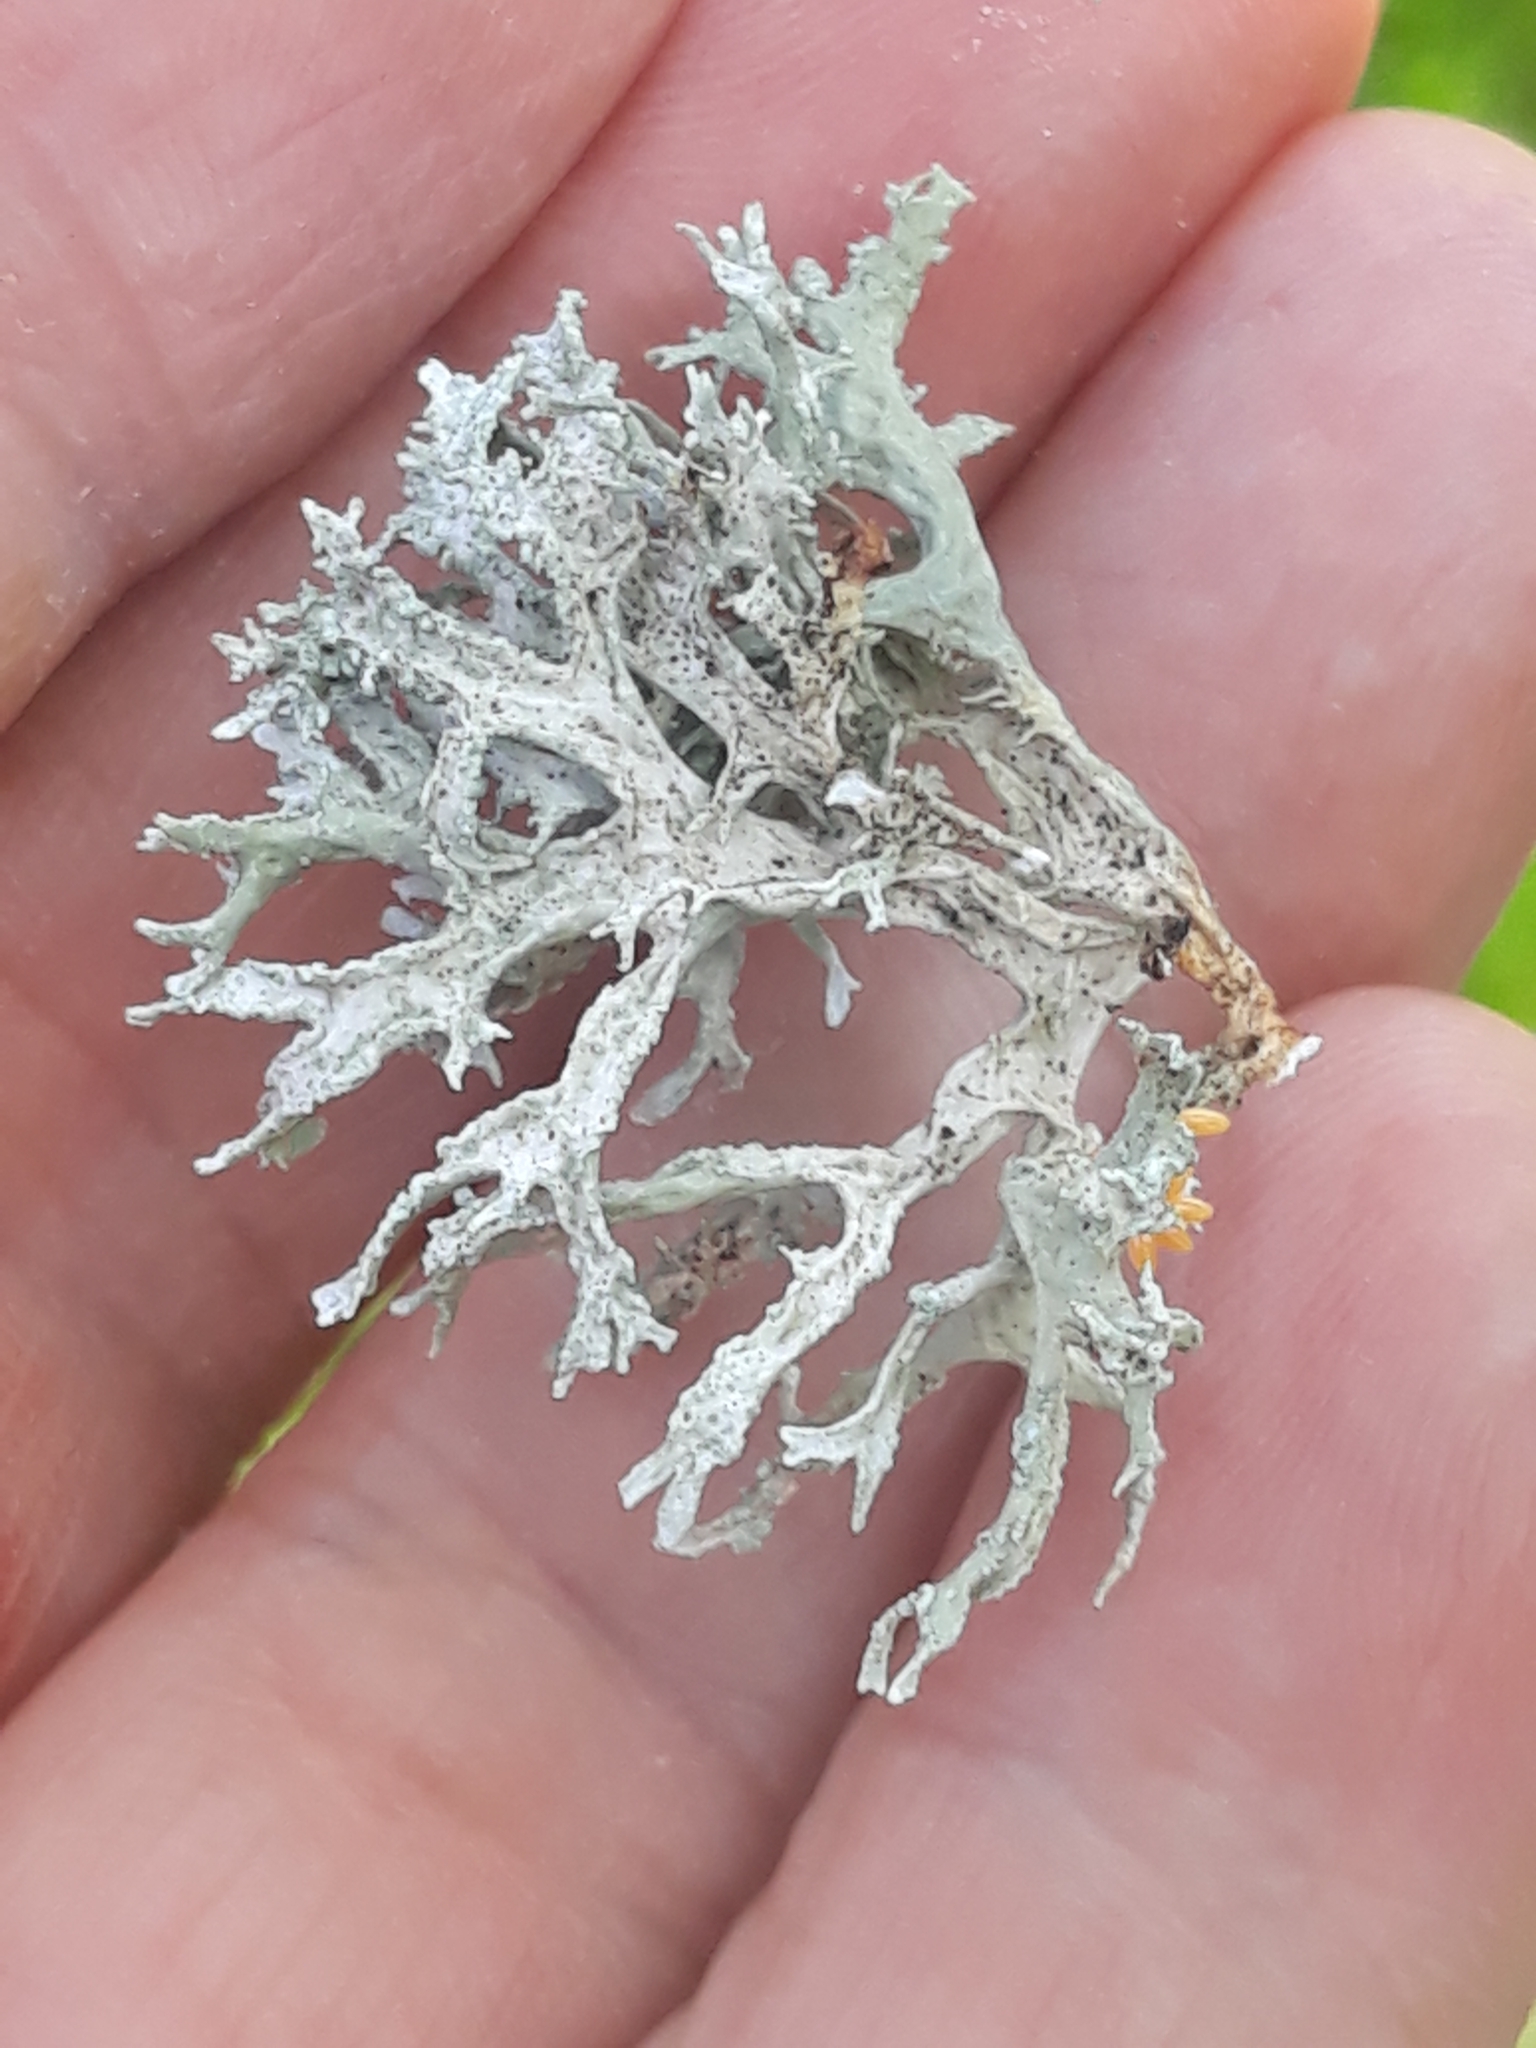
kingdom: Fungi
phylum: Ascomycota
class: Lecanoromycetes
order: Lecanorales
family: Parmeliaceae
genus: Evernia
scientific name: Evernia prunastri
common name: Oak moss
